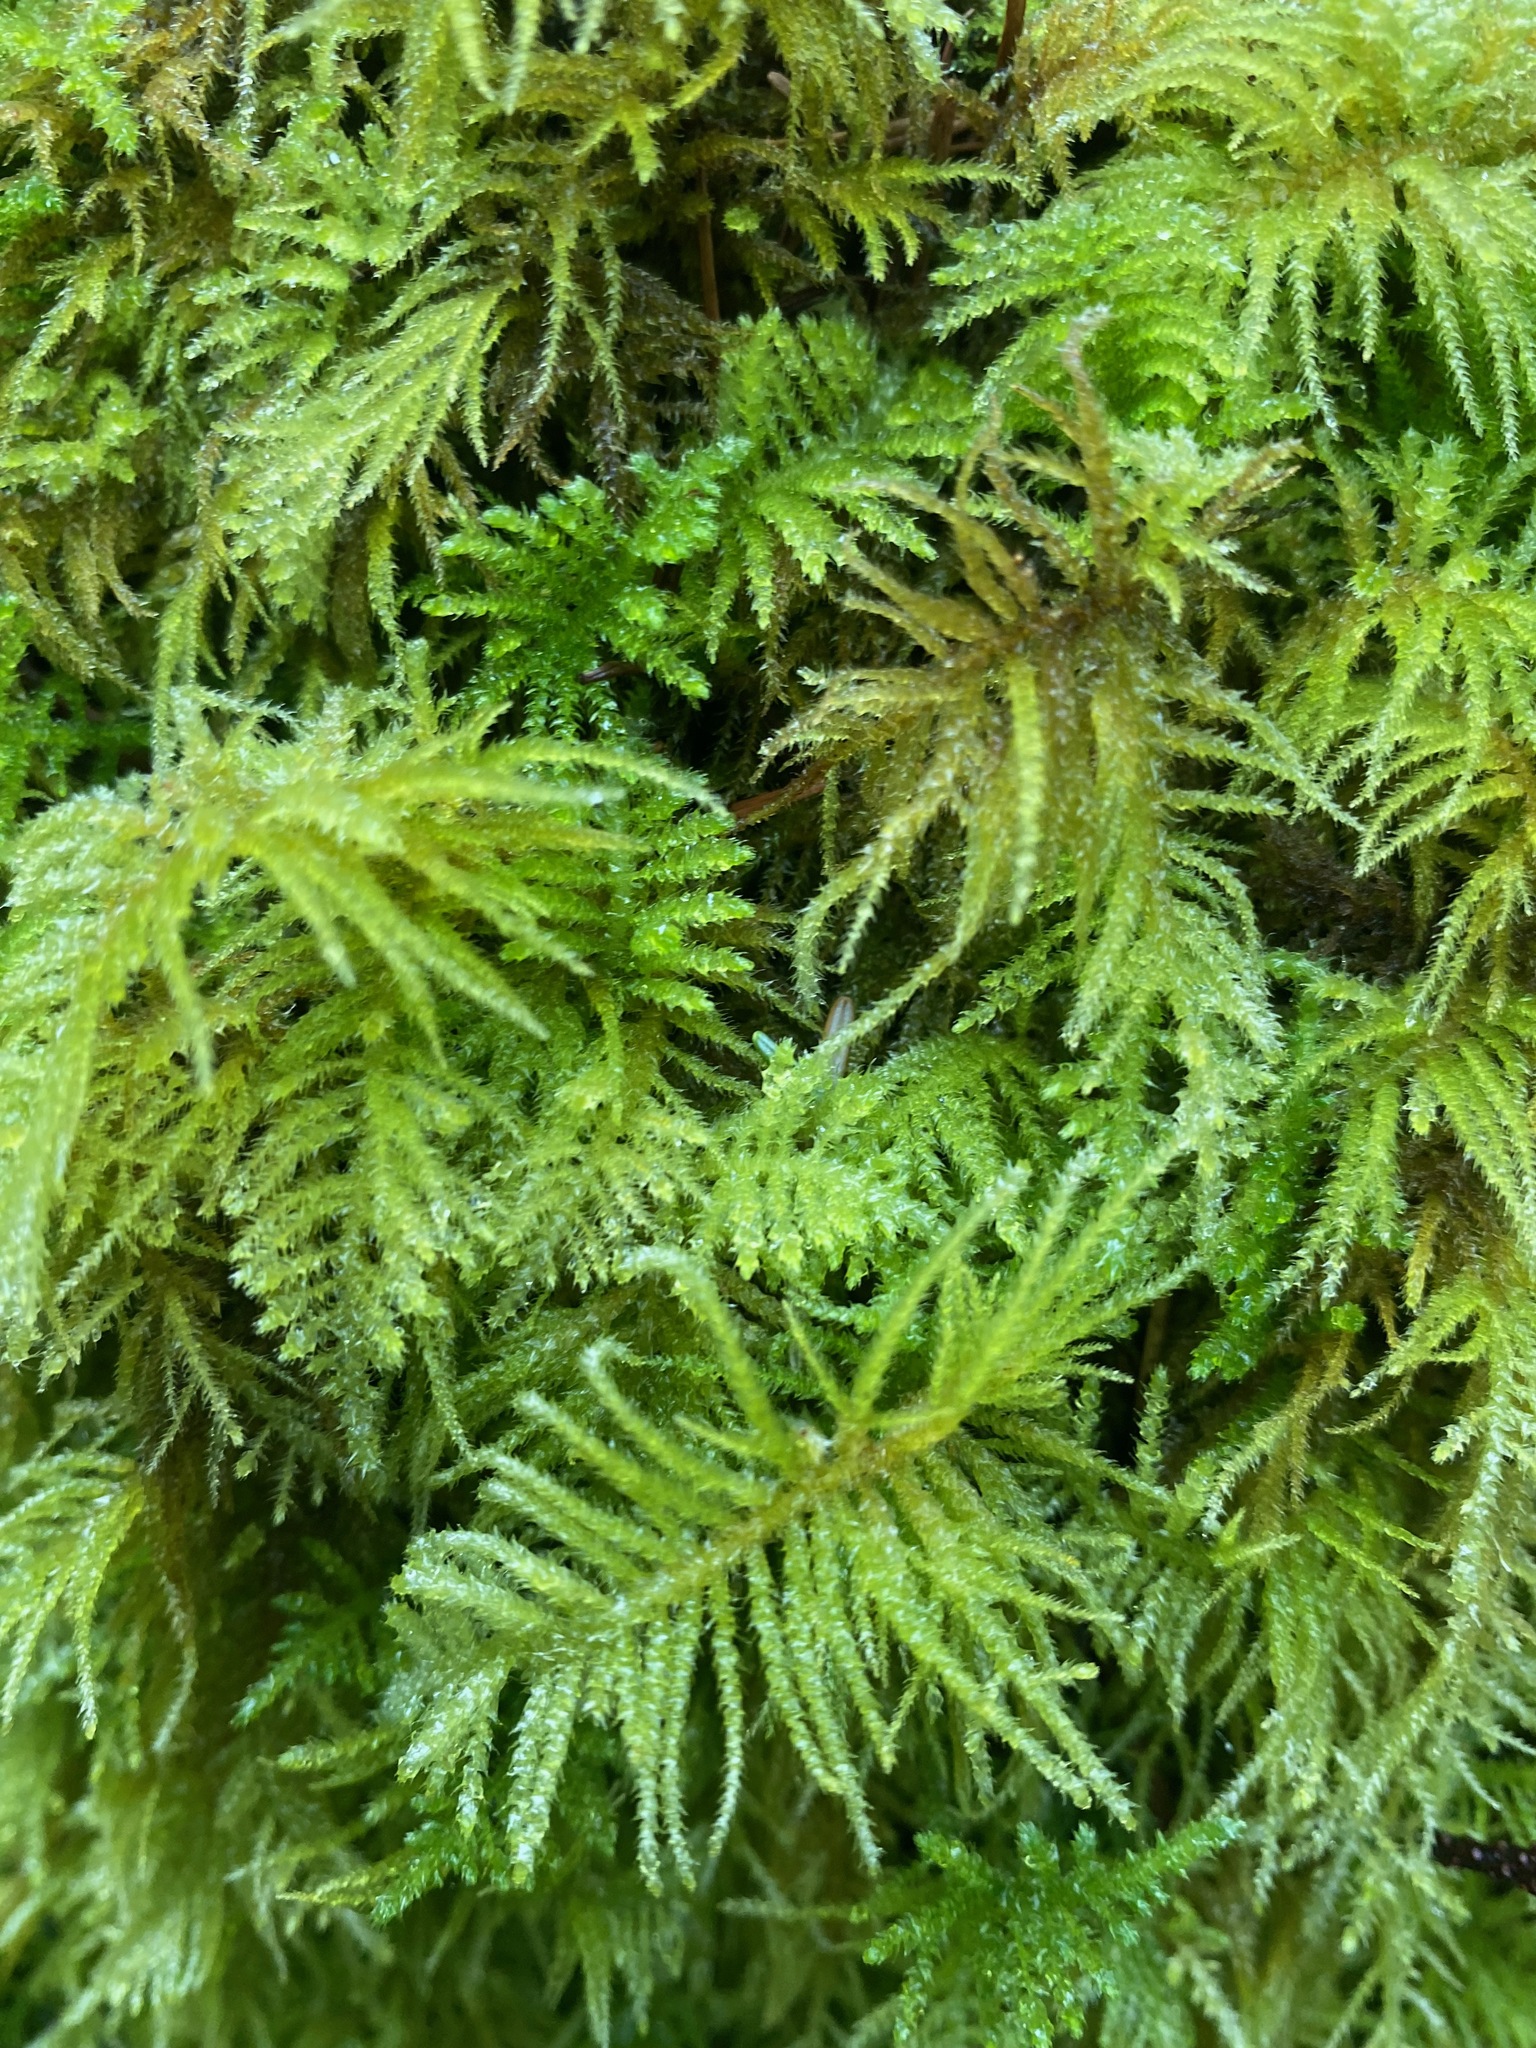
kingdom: Plantae
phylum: Bryophyta
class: Bryopsida
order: Hypnales
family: Brachytheciaceae
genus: Kindbergia
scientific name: Kindbergia oregana
